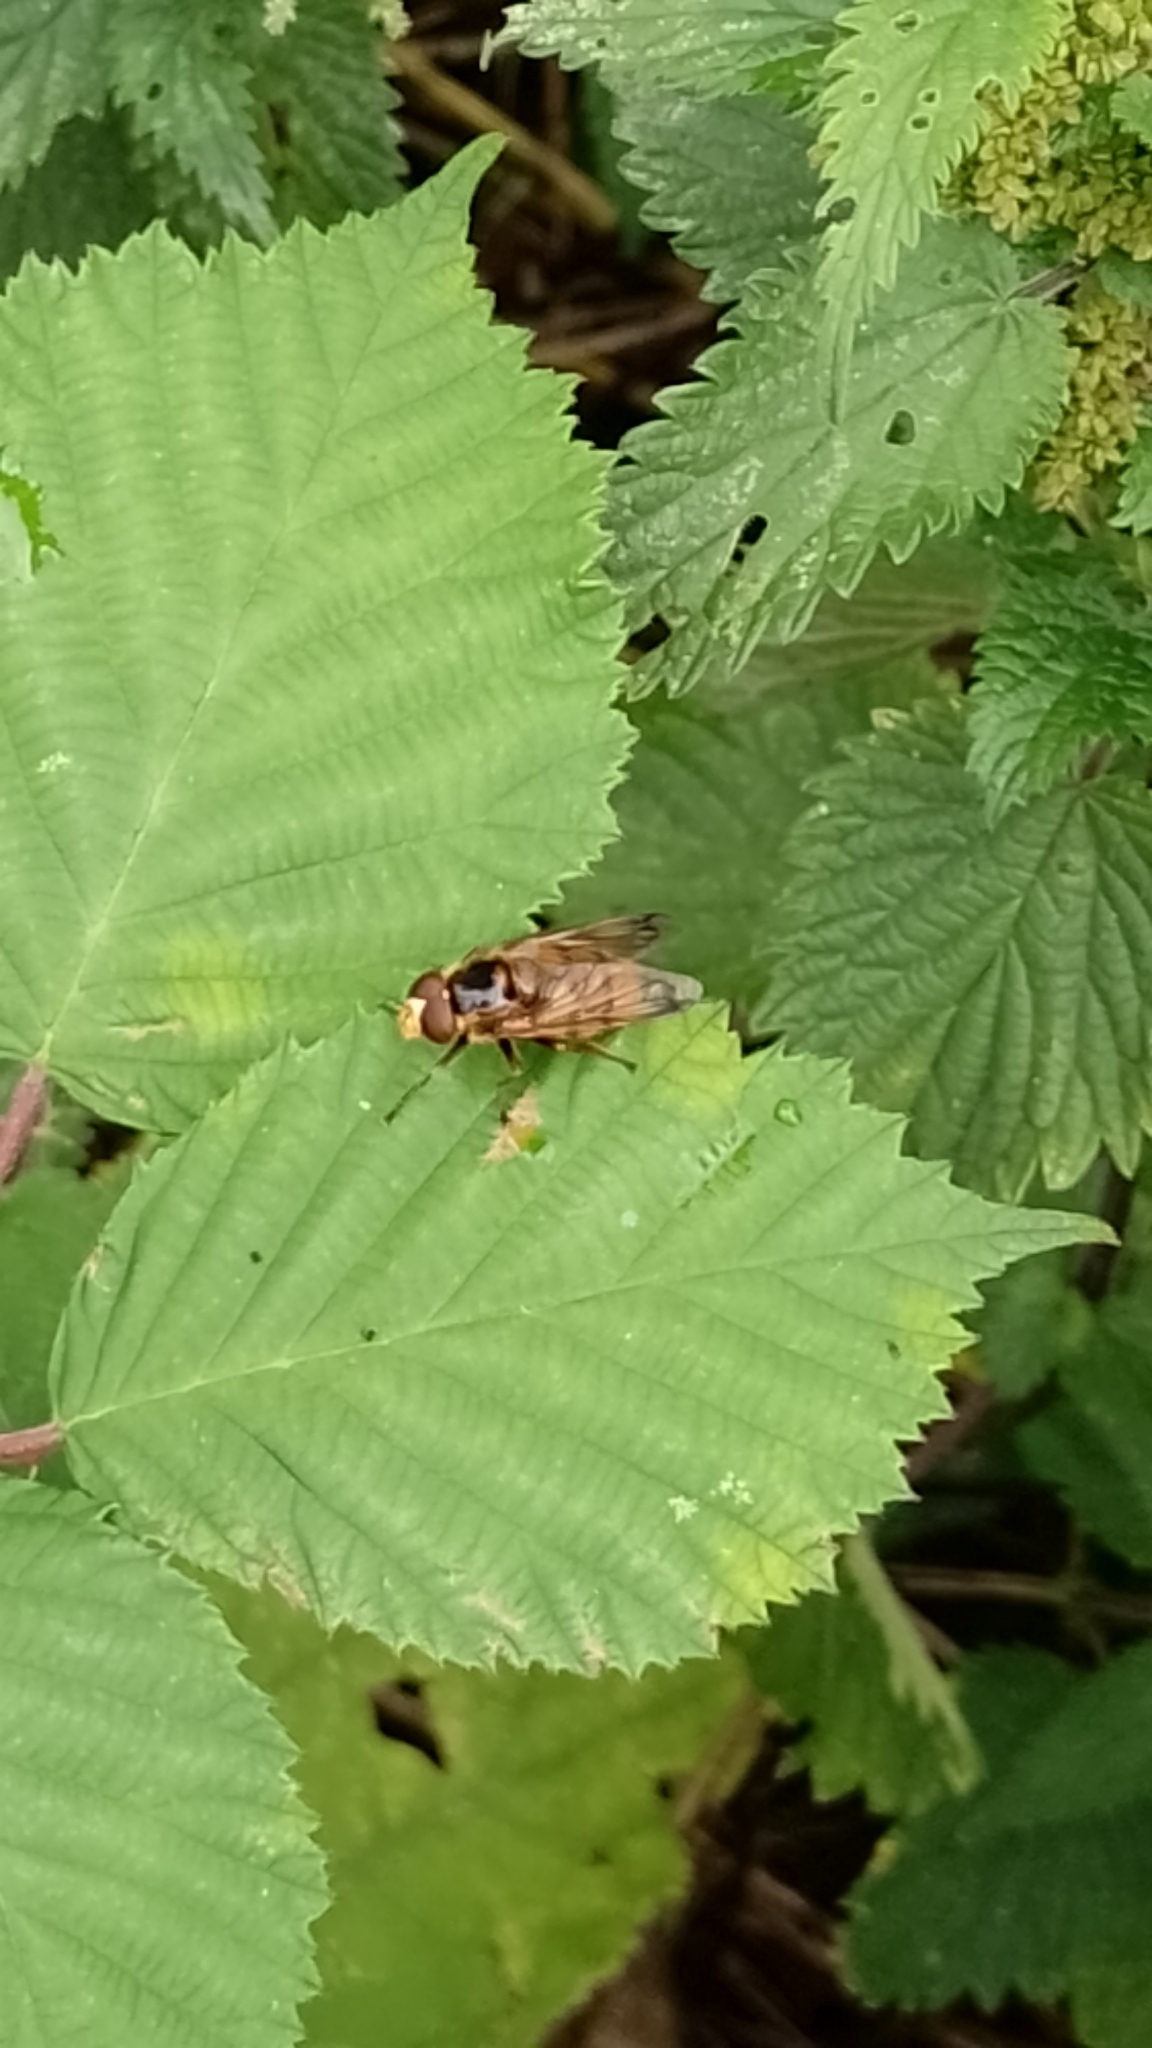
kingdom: Animalia
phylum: Arthropoda
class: Insecta
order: Diptera
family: Syrphidae
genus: Volucella
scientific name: Volucella inanis
